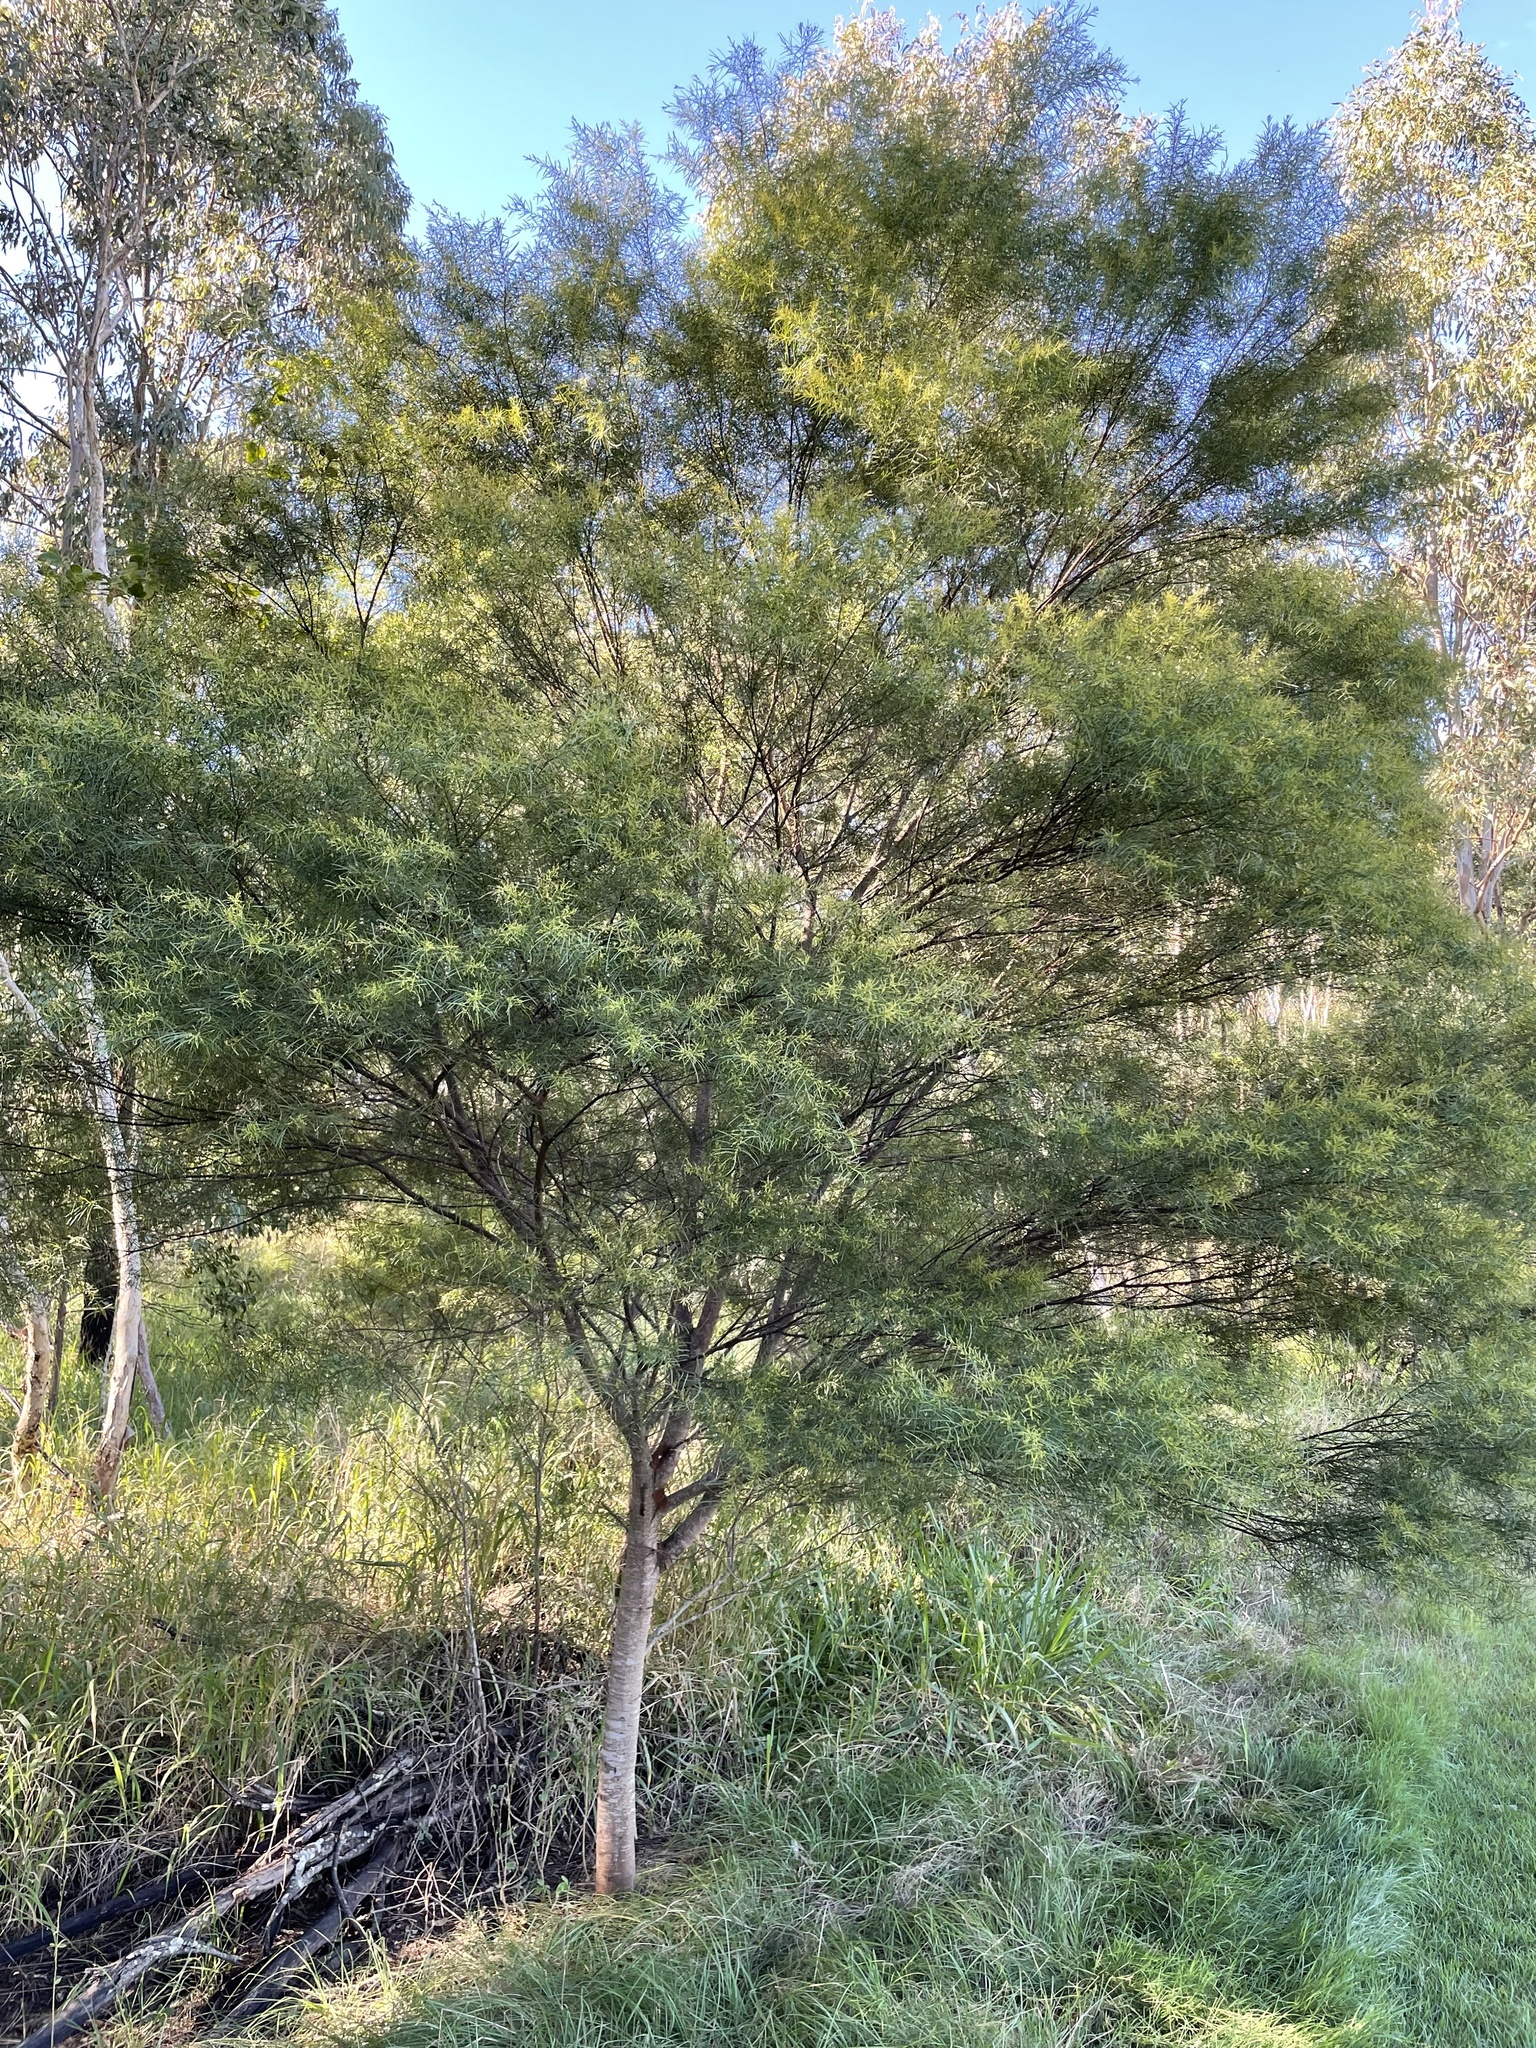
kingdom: Plantae
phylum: Tracheophyta
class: Magnoliopsida
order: Fabales
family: Fabaceae
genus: Acacia
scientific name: Acacia fimbriata
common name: Brisbane golden wattle
